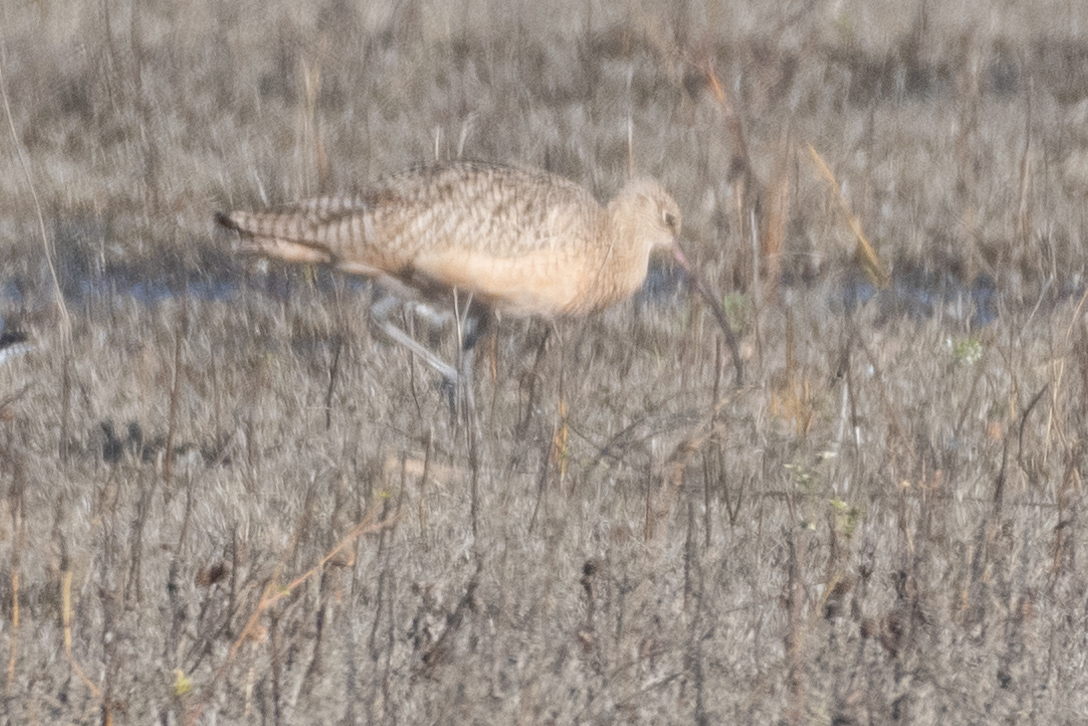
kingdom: Animalia
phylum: Chordata
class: Aves
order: Charadriiformes
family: Scolopacidae
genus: Numenius
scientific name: Numenius americanus
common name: Long-billed curlew
